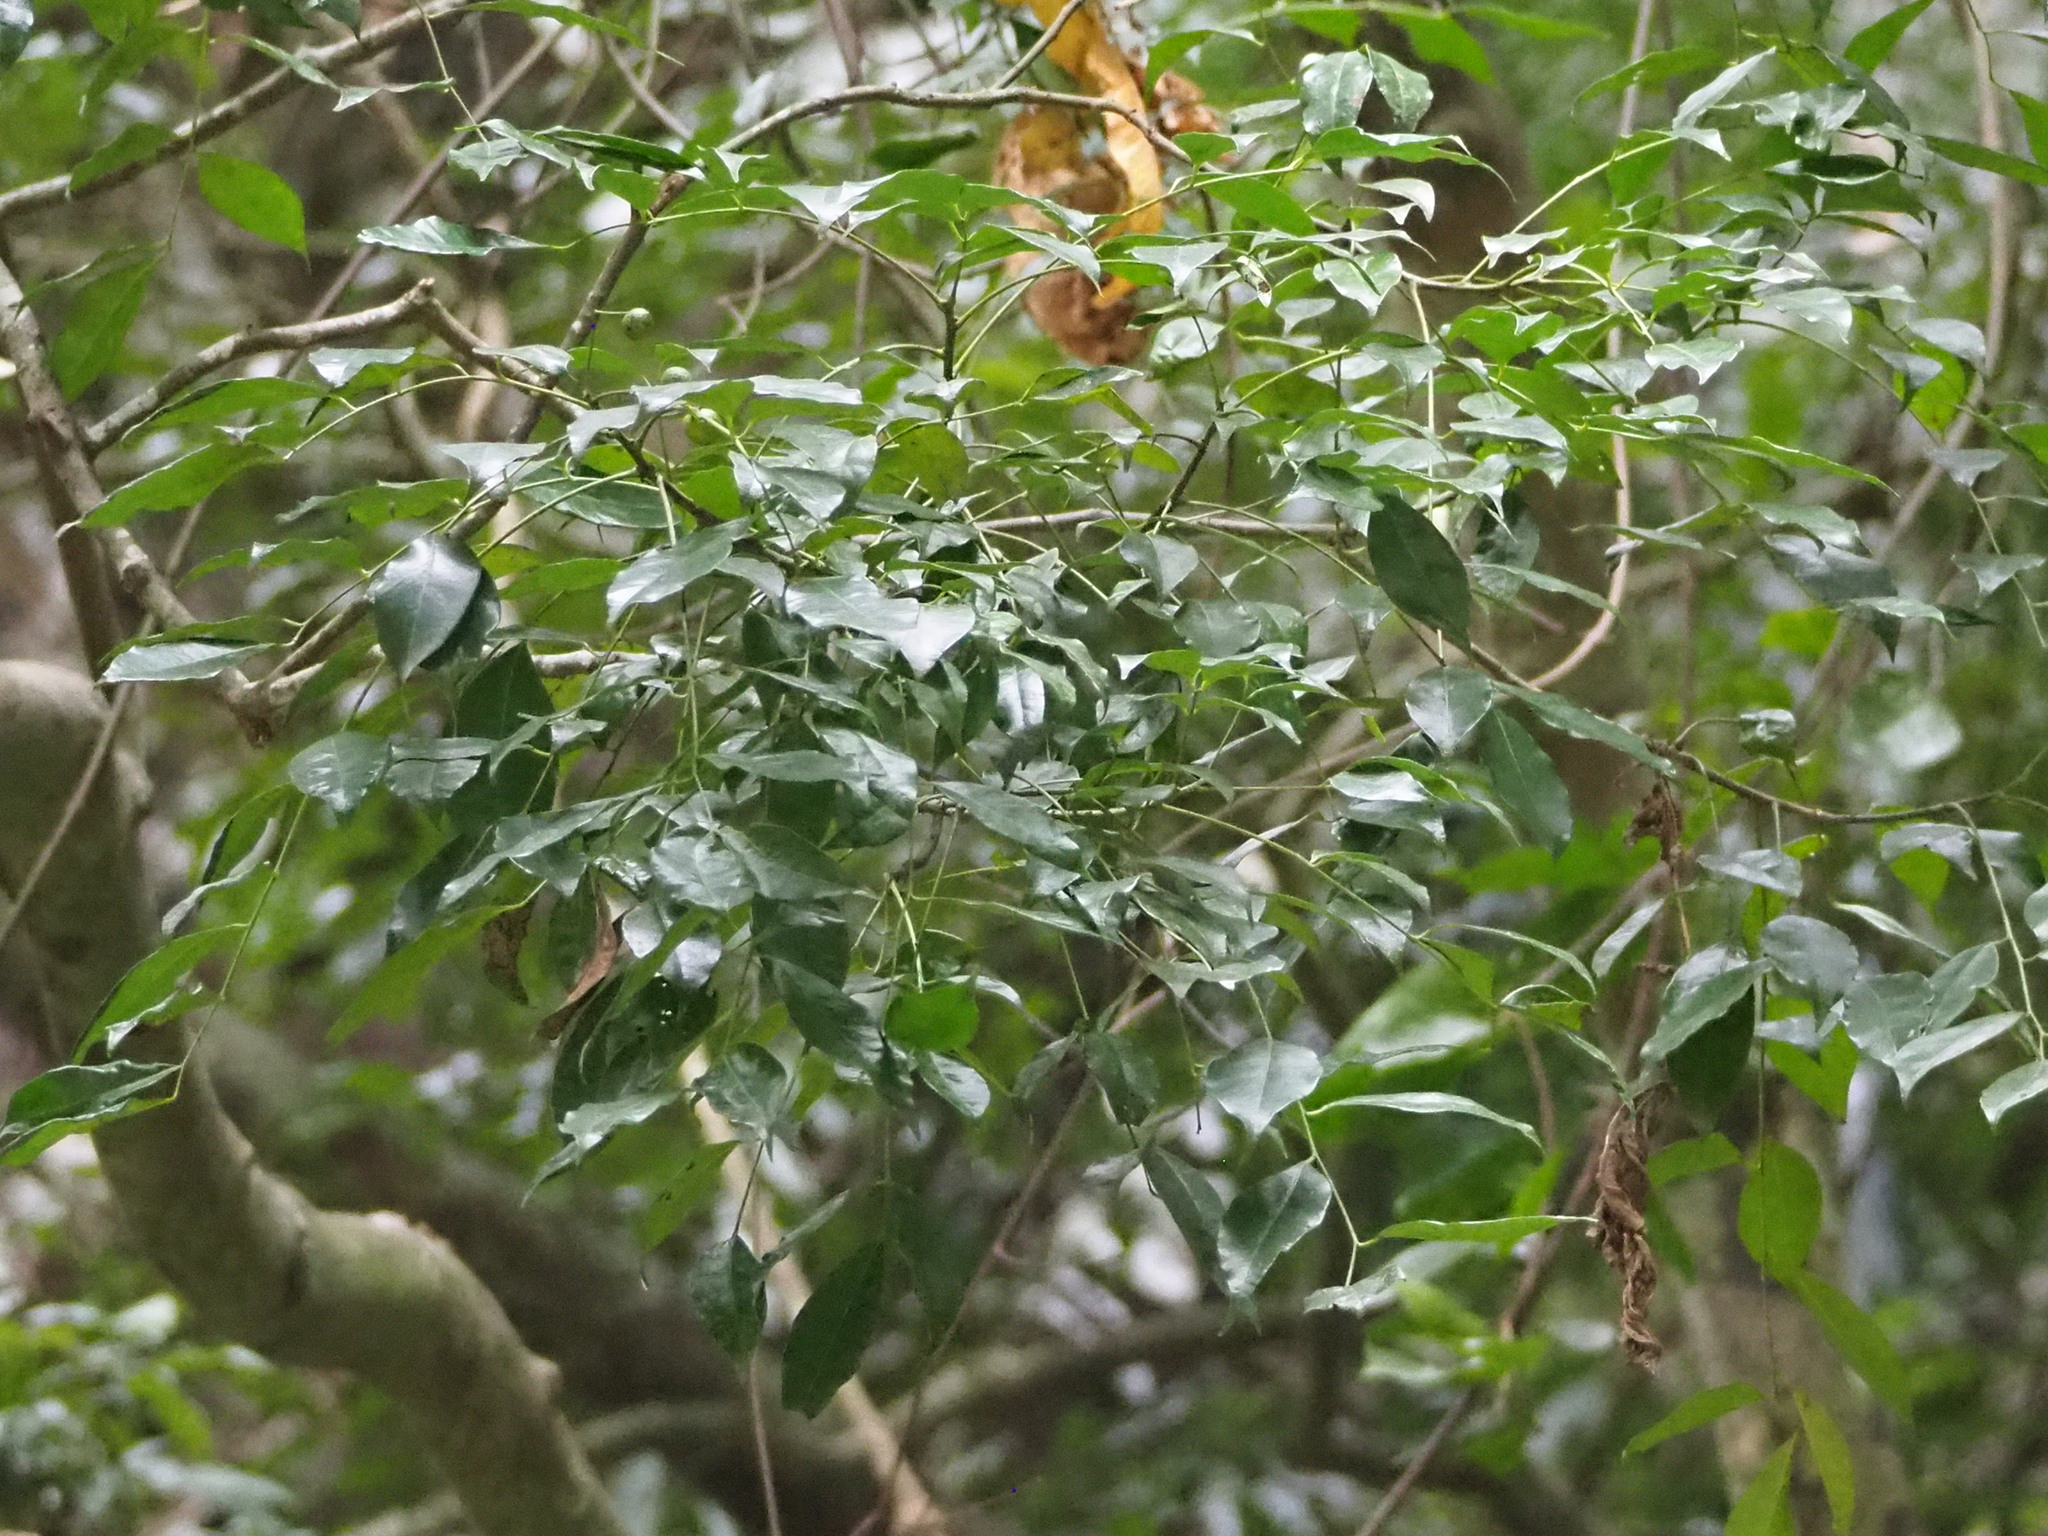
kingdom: Plantae
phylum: Tracheophyta
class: Magnoliopsida
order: Sapindales
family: Rutaceae
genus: Murraya
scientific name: Murraya euchrestifolia
